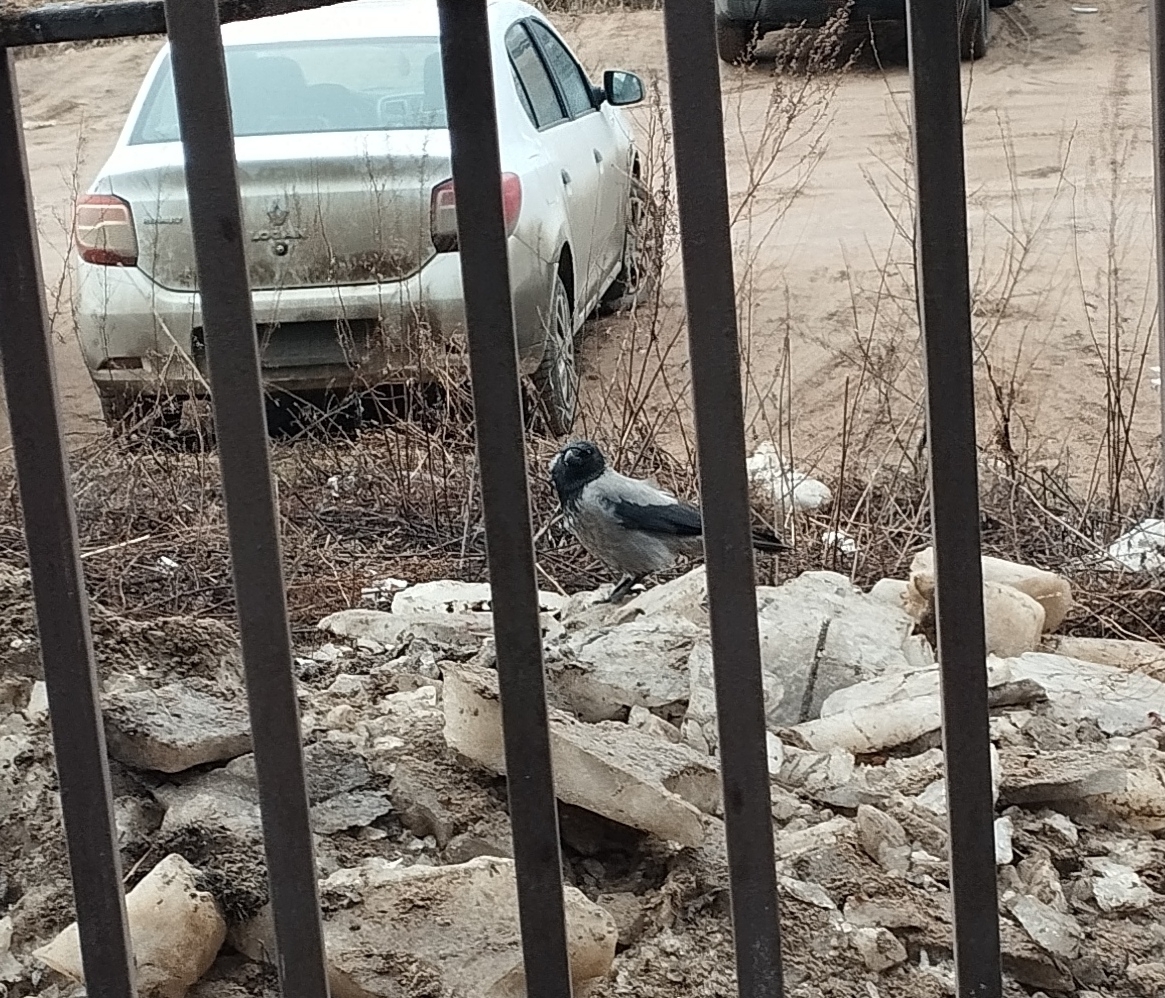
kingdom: Animalia
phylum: Chordata
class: Aves
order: Passeriformes
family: Corvidae
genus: Corvus
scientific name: Corvus cornix
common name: Hooded crow
